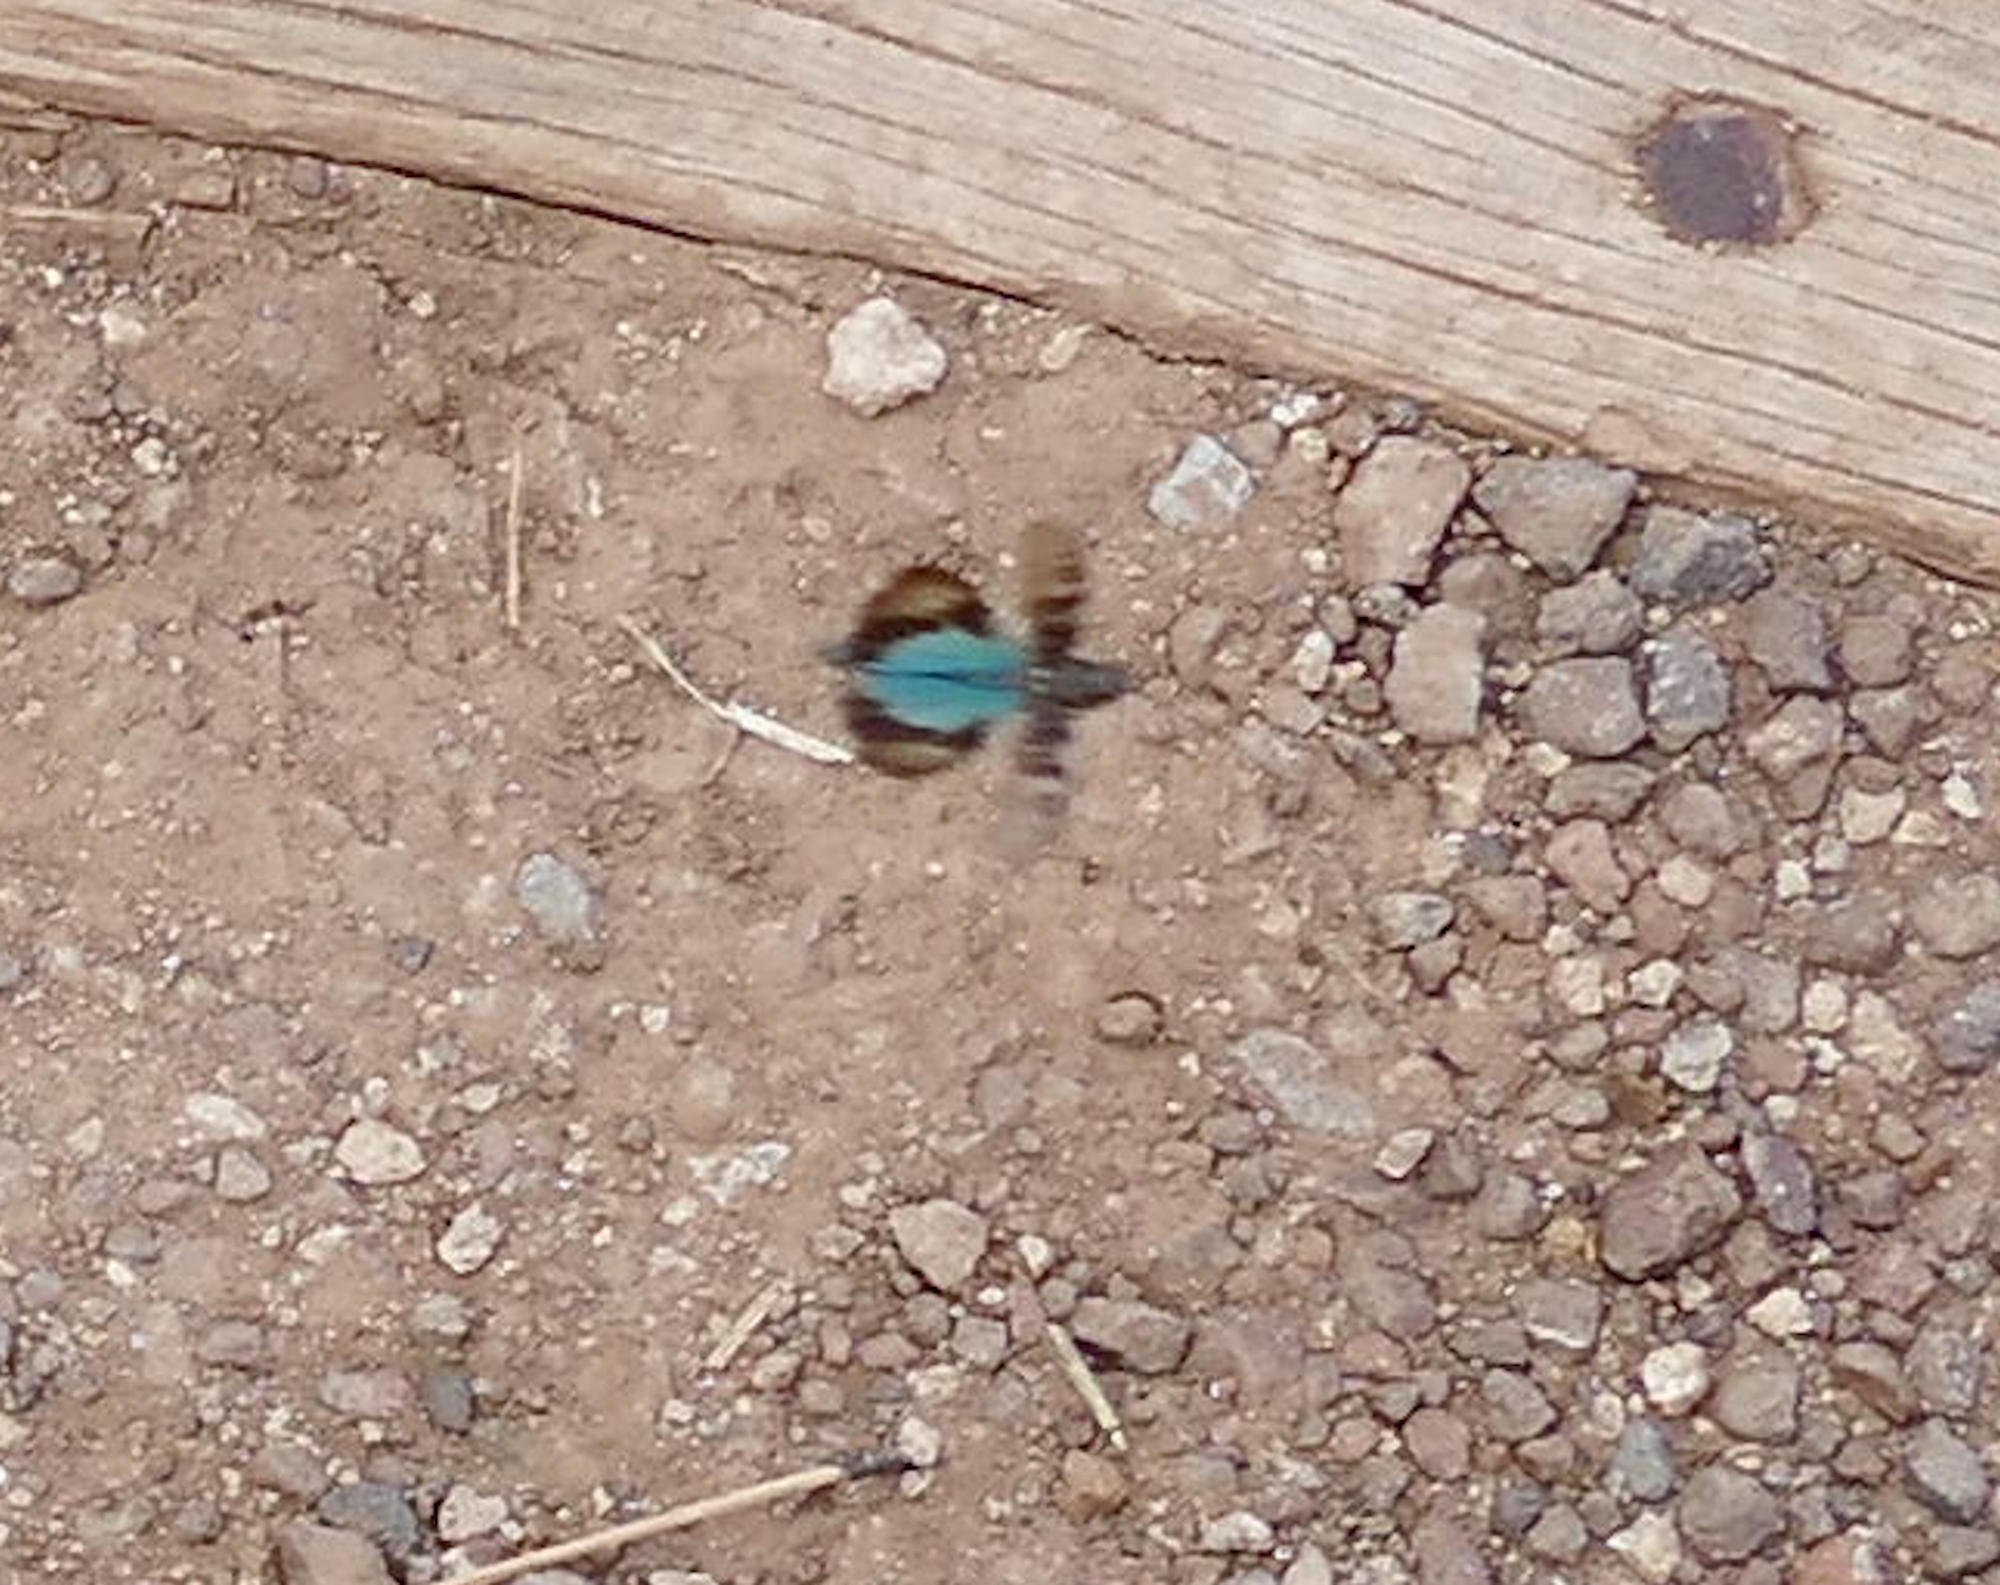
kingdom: Animalia
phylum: Arthropoda
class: Insecta
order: Orthoptera
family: Acrididae
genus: Trimerotropis
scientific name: Trimerotropis cyaneipennis
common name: Blue-winged grasshopper
